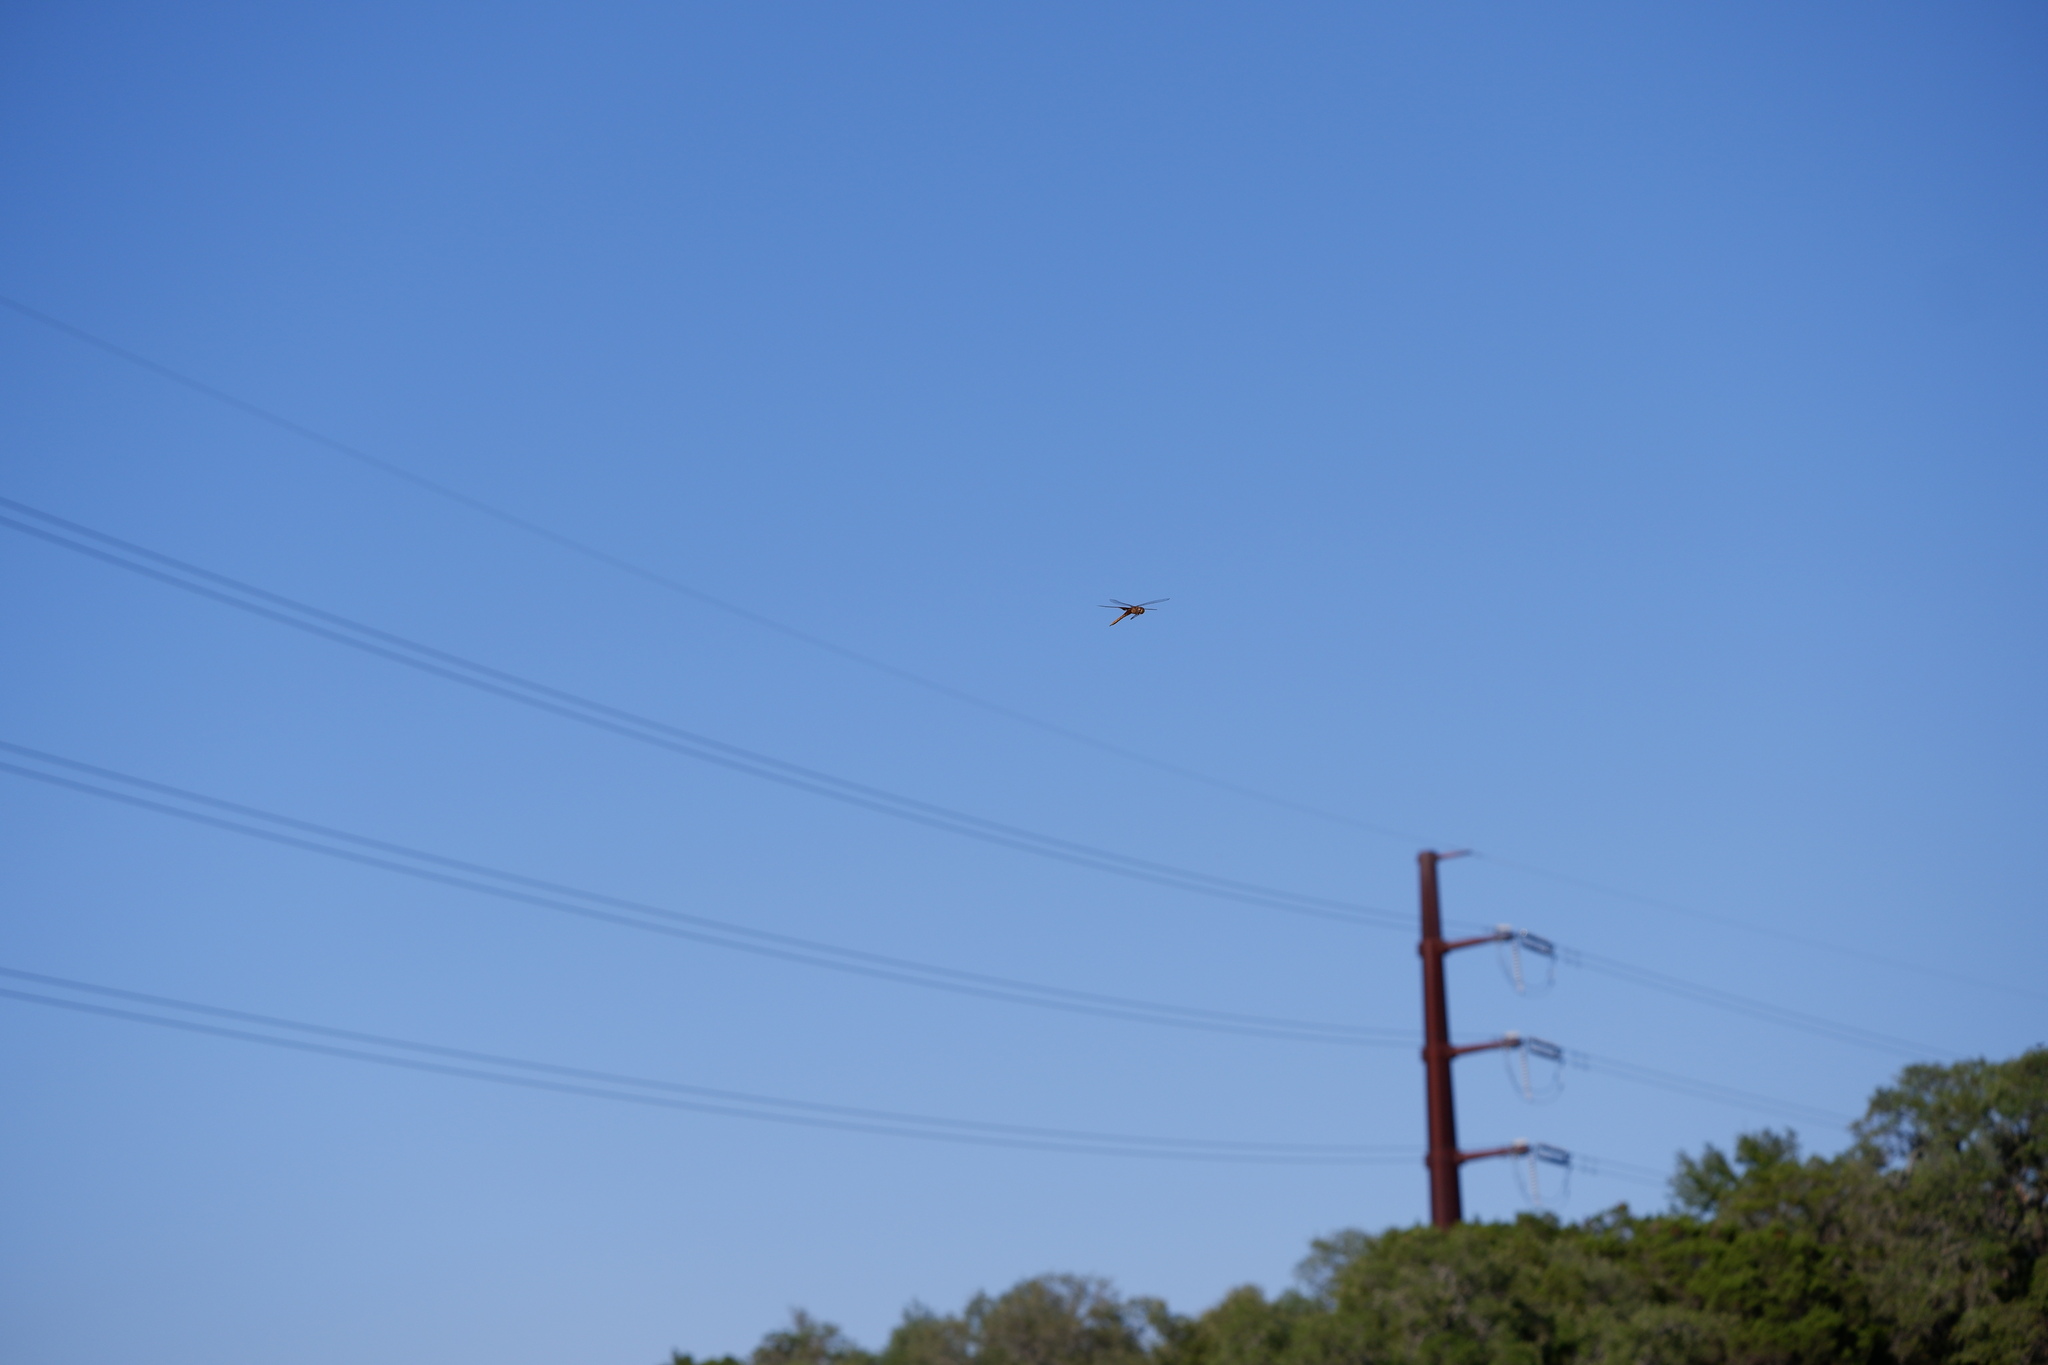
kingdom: Animalia
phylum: Arthropoda
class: Insecta
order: Odonata
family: Libellulidae
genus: Tramea
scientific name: Tramea onusta
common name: Red saddlebags
